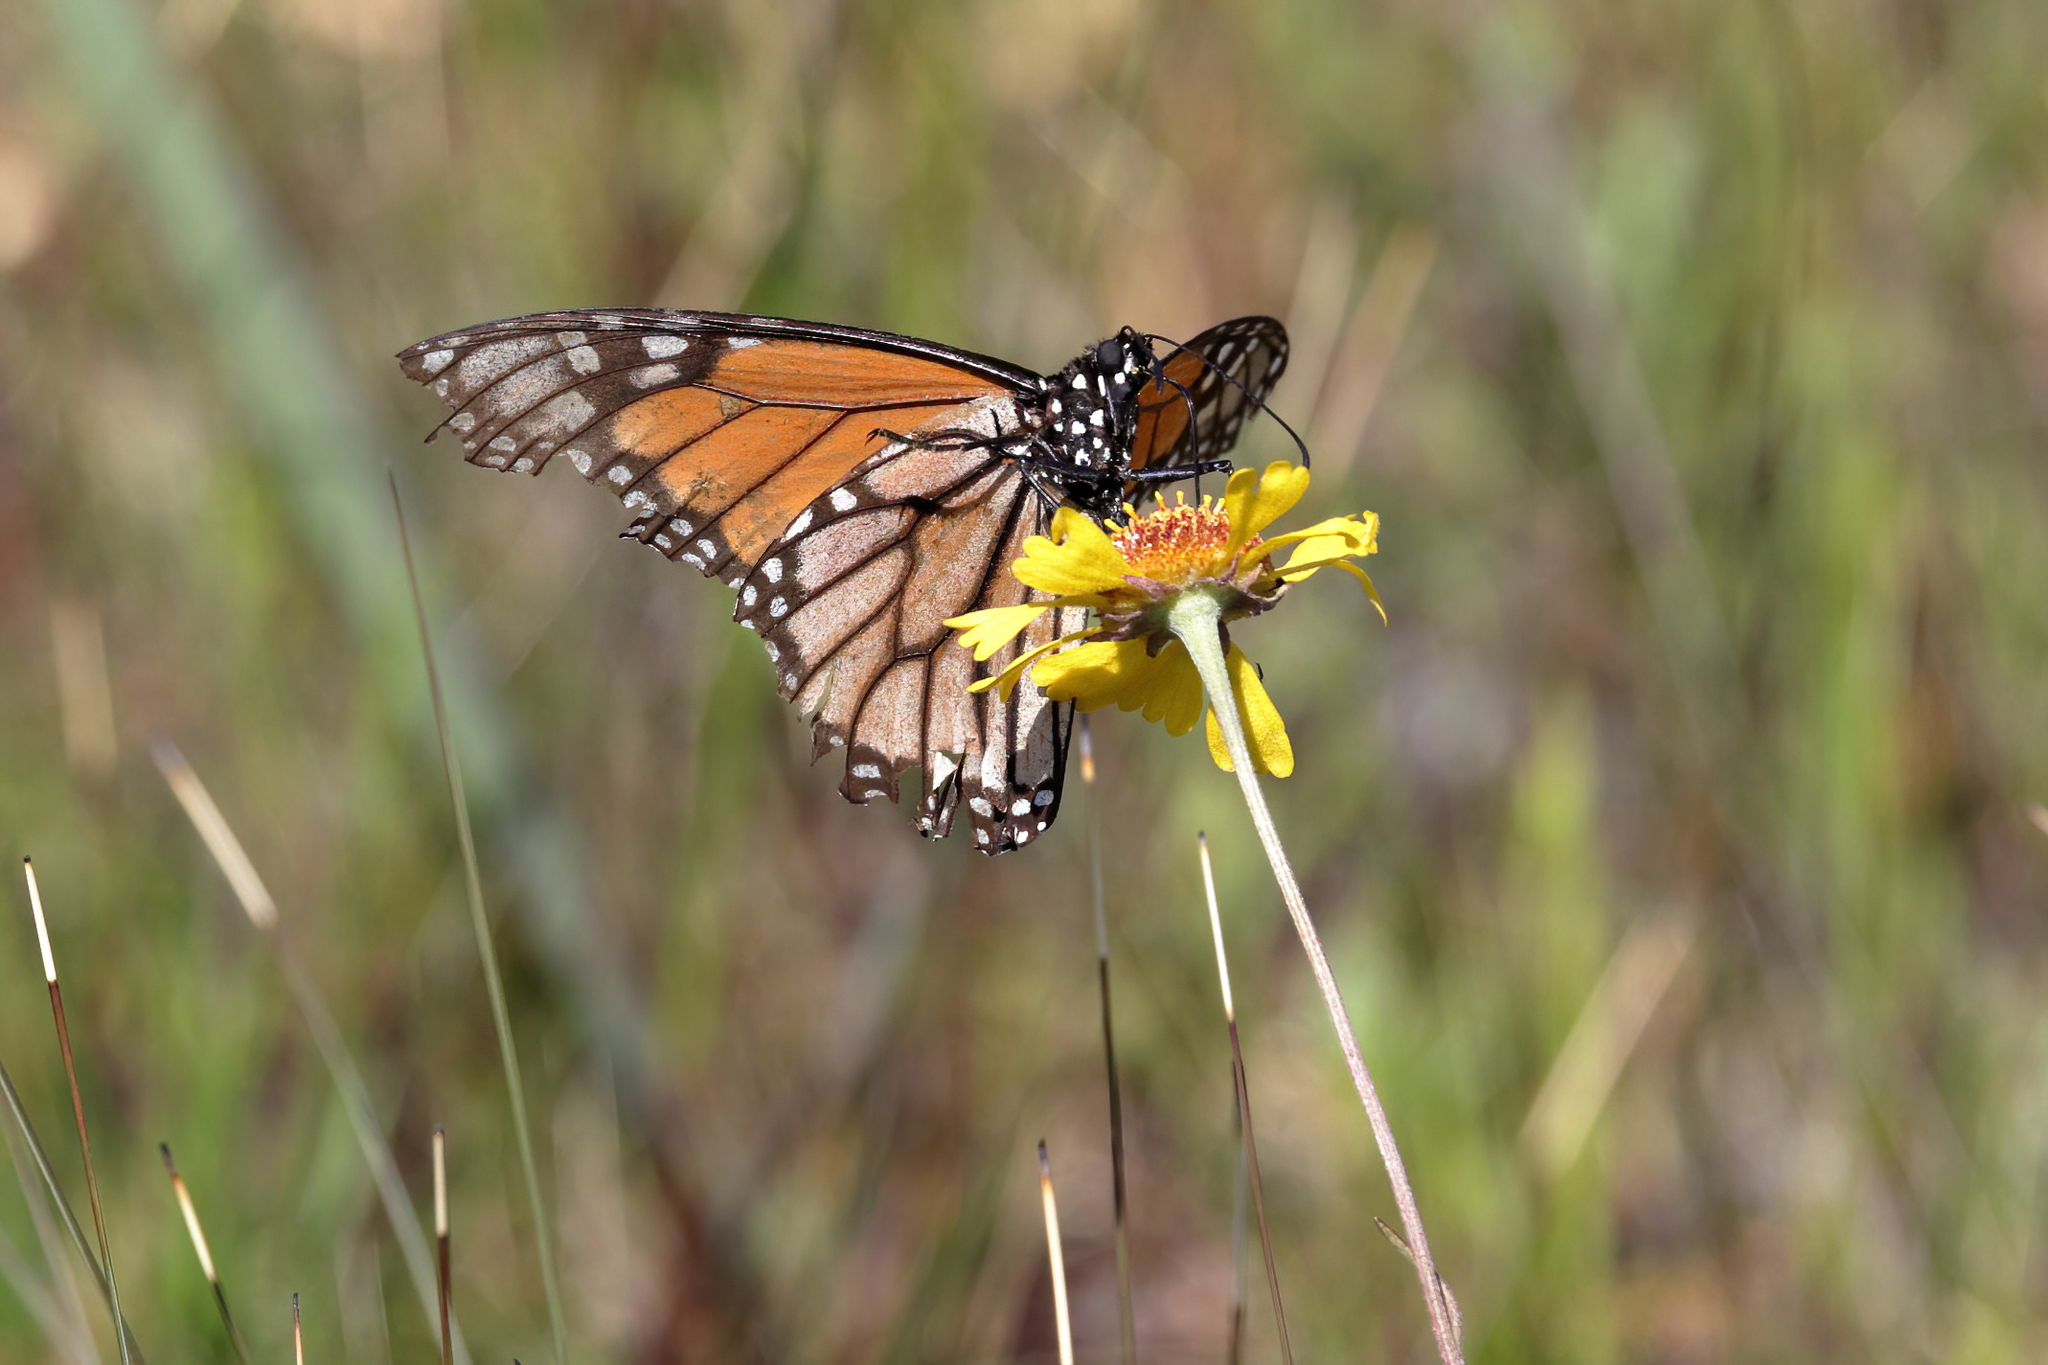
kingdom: Animalia
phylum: Arthropoda
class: Insecta
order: Lepidoptera
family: Nymphalidae
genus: Danaus
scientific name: Danaus plexippus
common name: Monarch
